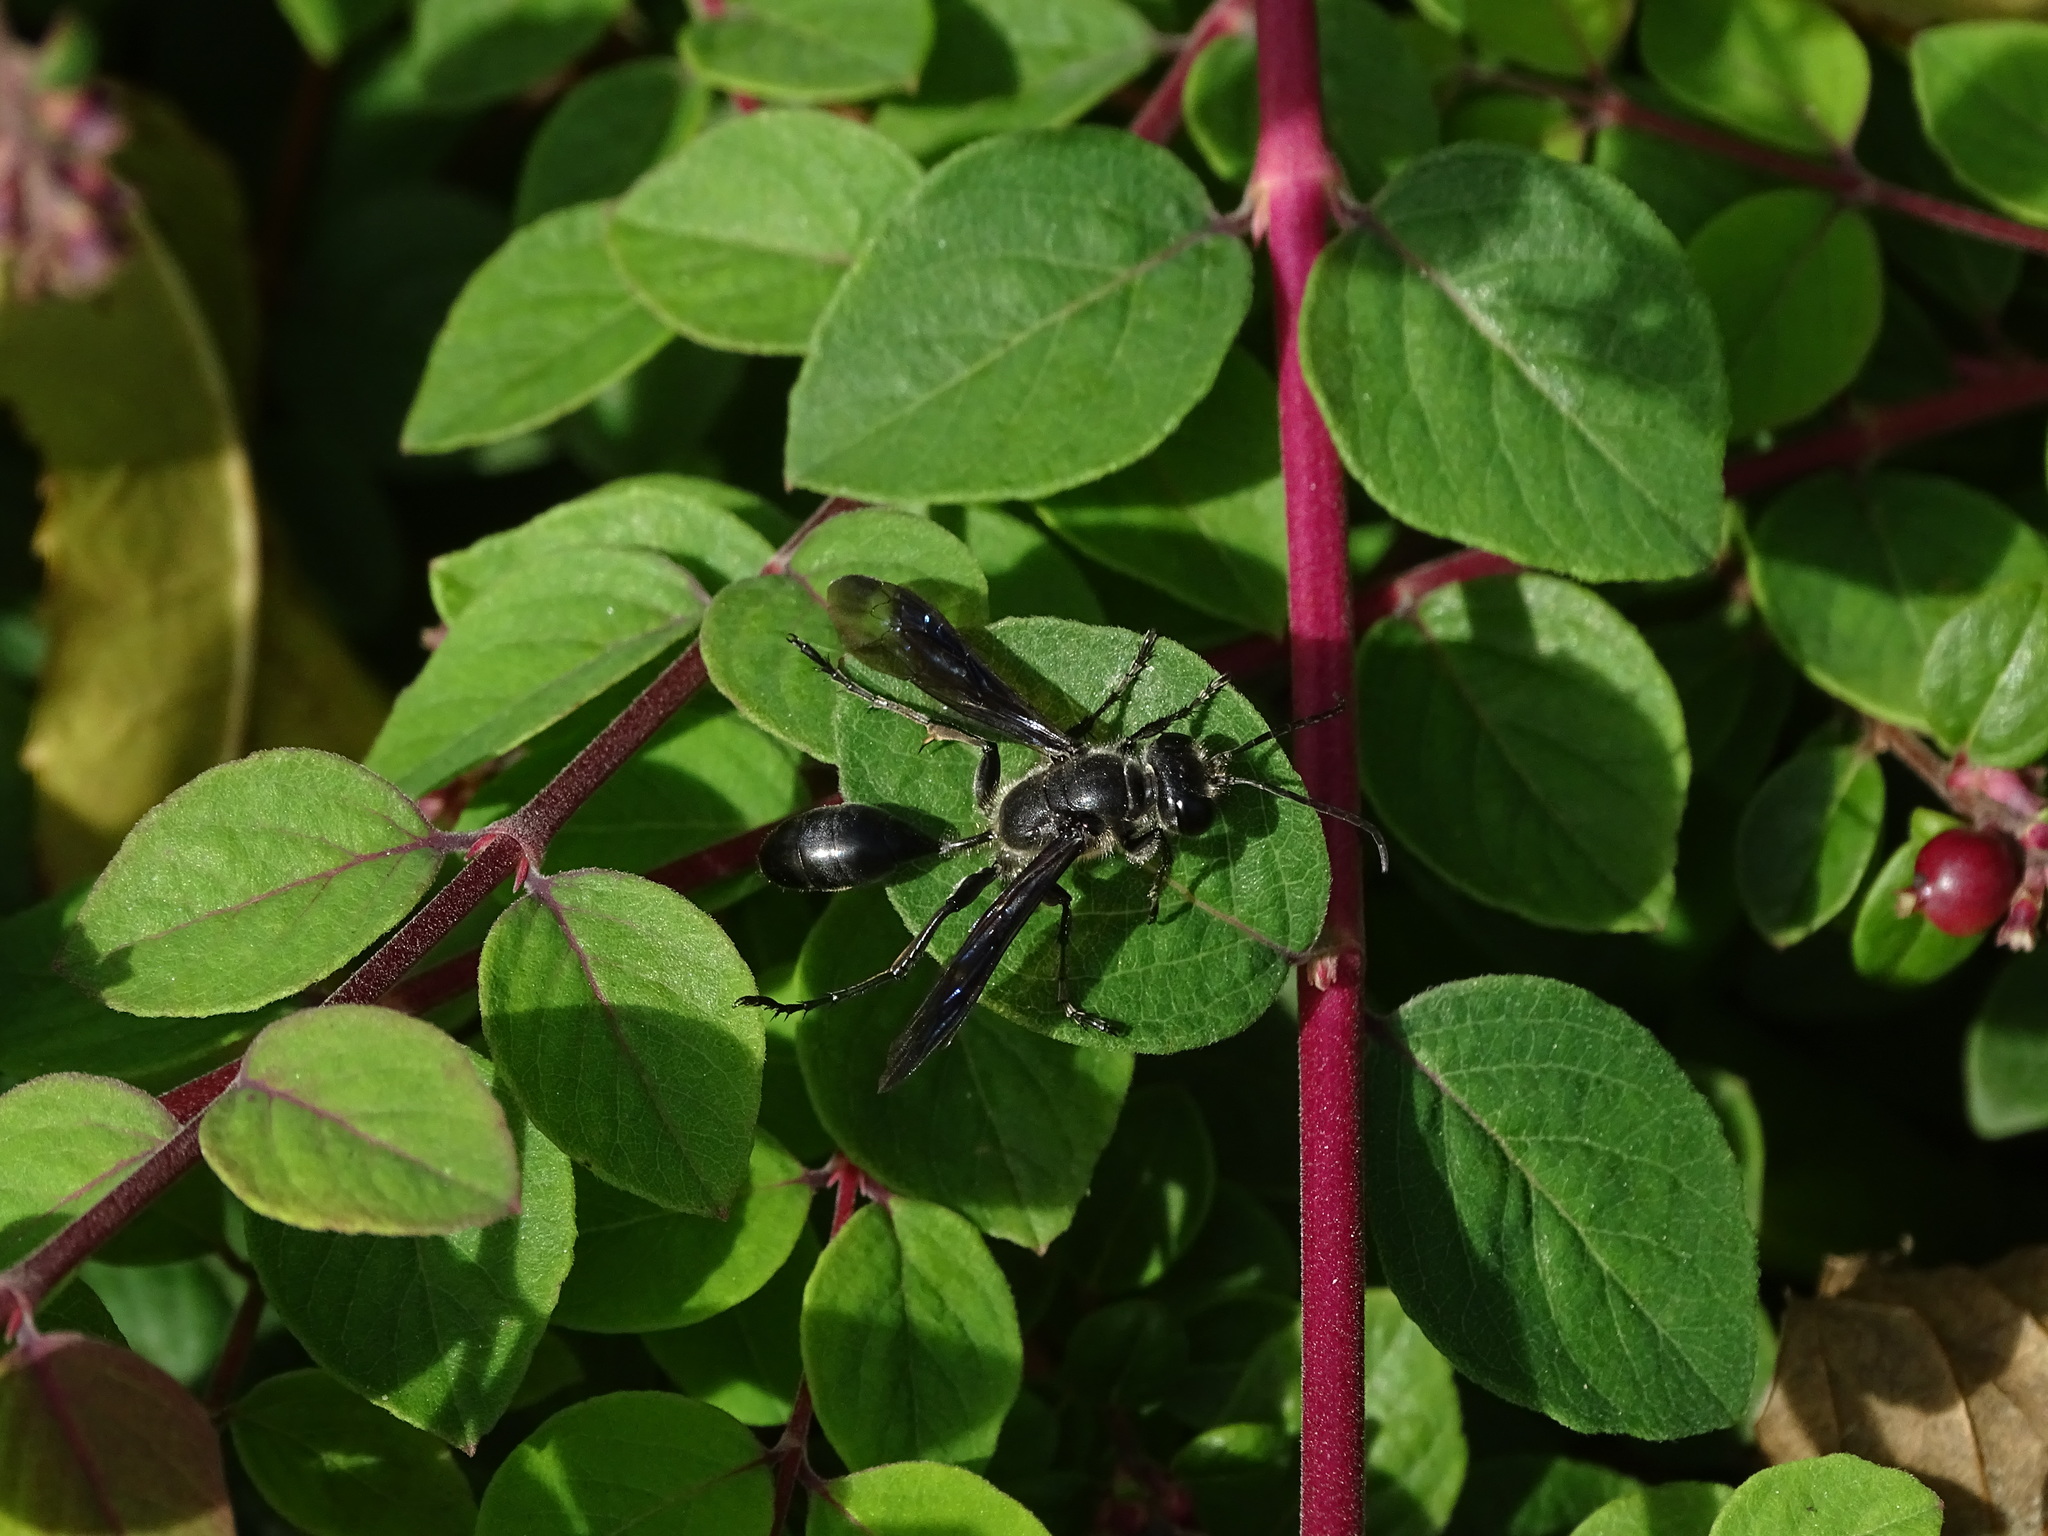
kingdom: Animalia
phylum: Arthropoda
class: Insecta
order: Hymenoptera
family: Sphecidae
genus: Isodontia
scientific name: Isodontia mexicana
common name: Mud dauber
